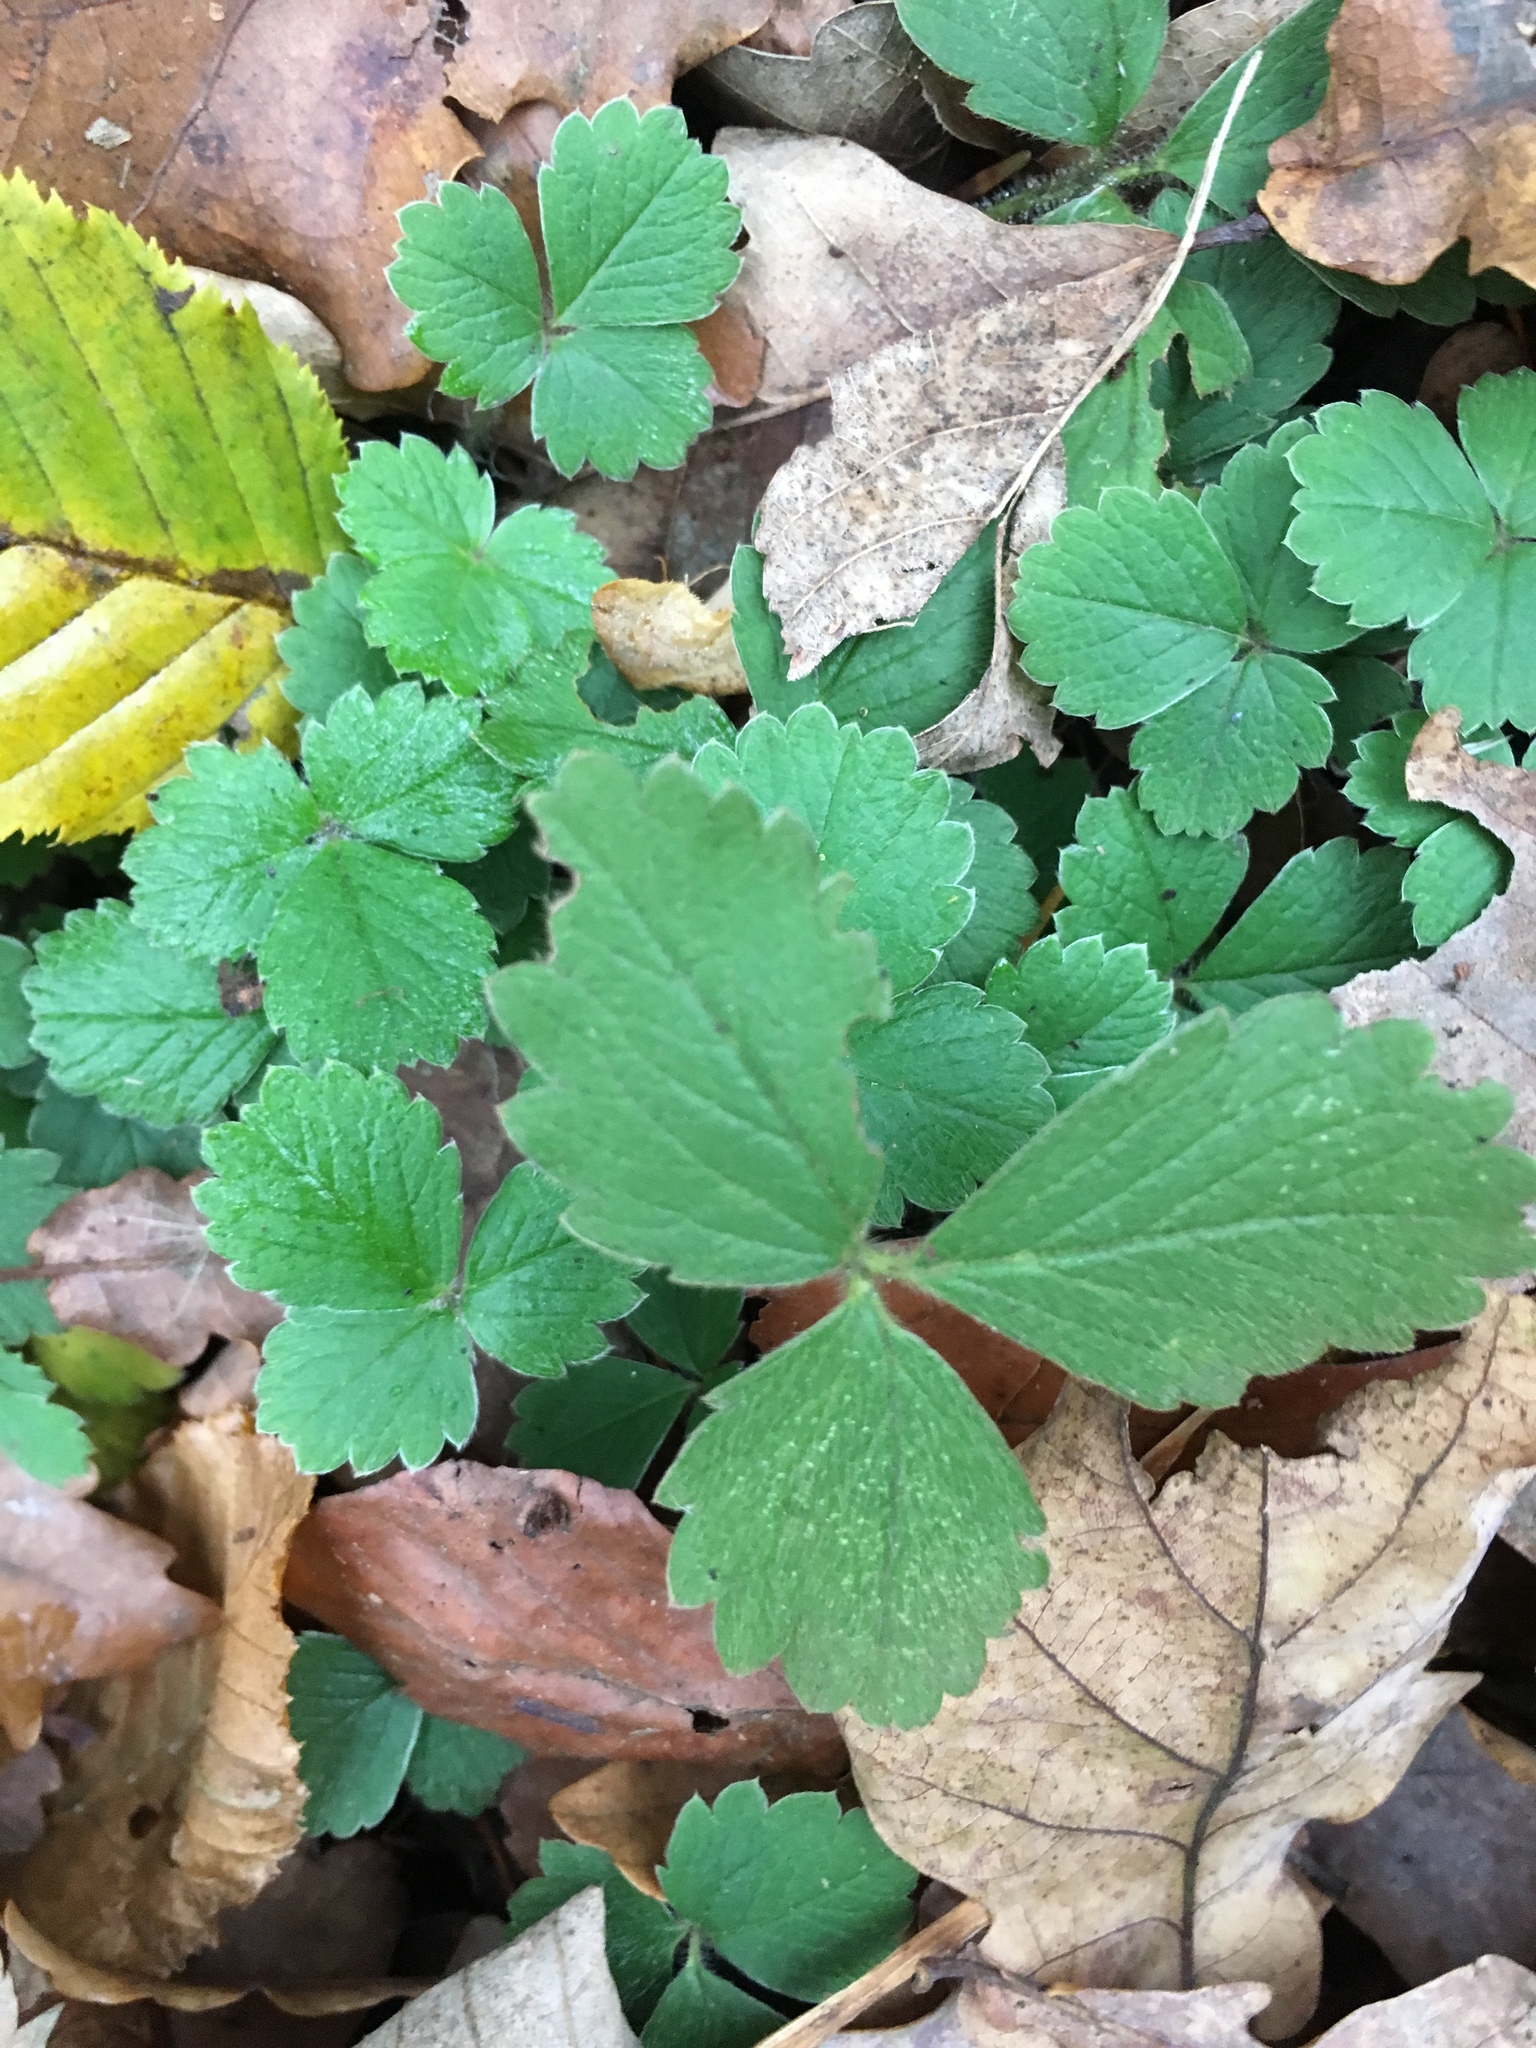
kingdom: Plantae
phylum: Tracheophyta
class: Magnoliopsida
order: Rosales
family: Rosaceae
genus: Potentilla
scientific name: Potentilla sterilis
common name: Barren strawberry
